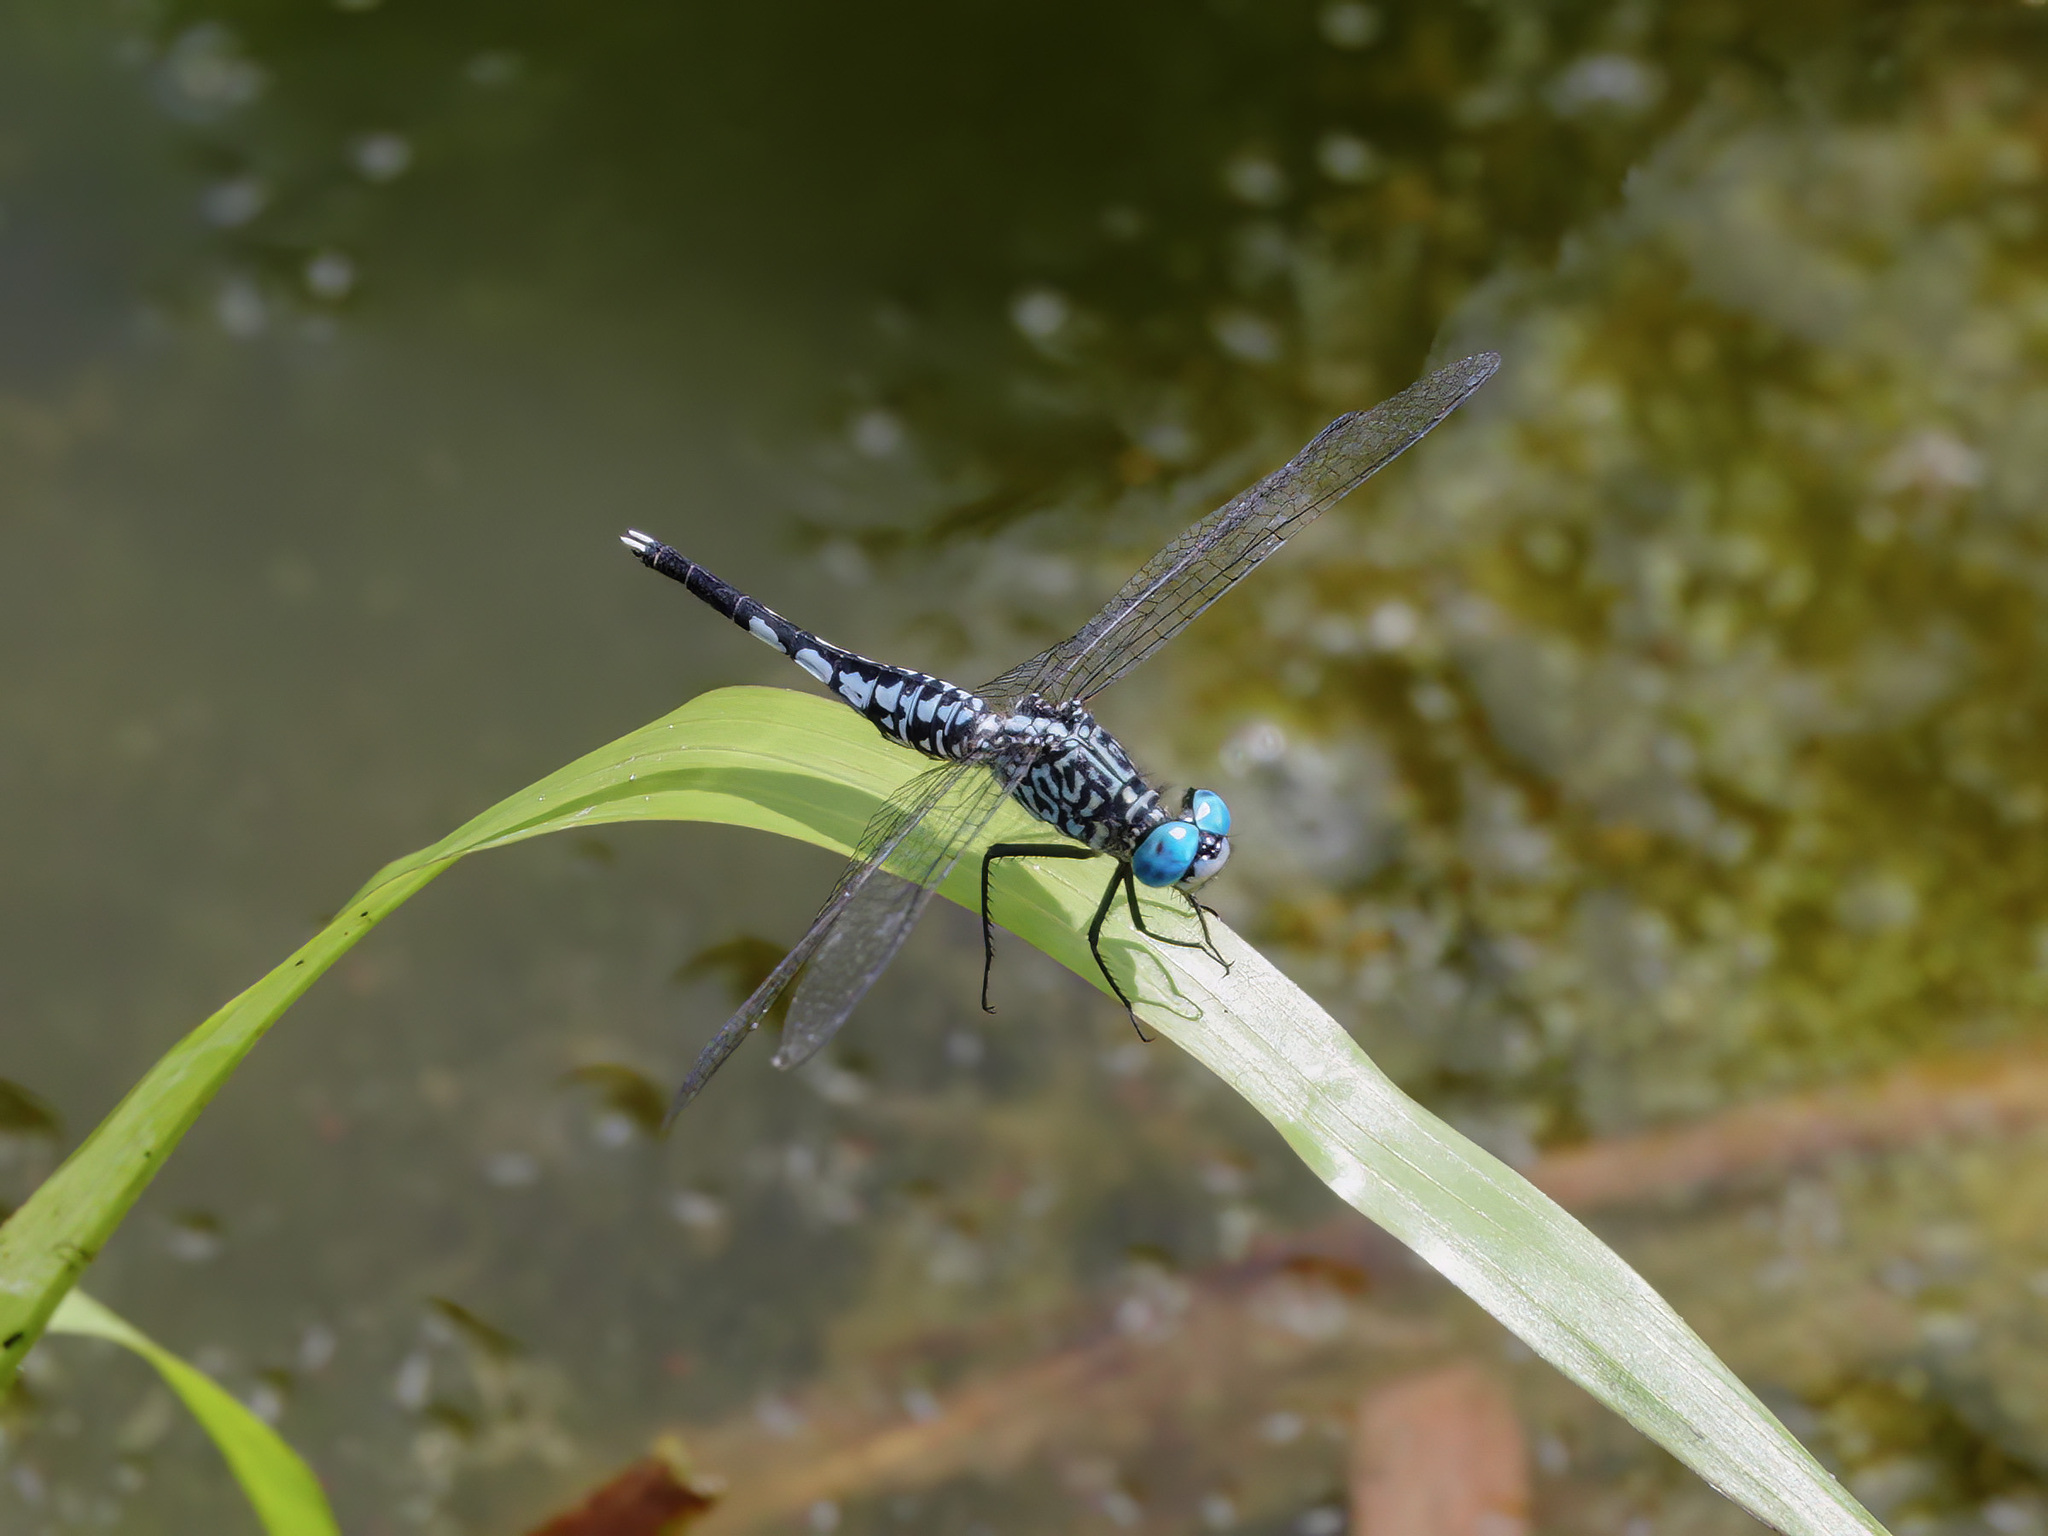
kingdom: Animalia
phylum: Arthropoda
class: Insecta
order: Odonata
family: Libellulidae
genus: Acisoma
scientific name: Acisoma panorpoides
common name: Asian pintail
